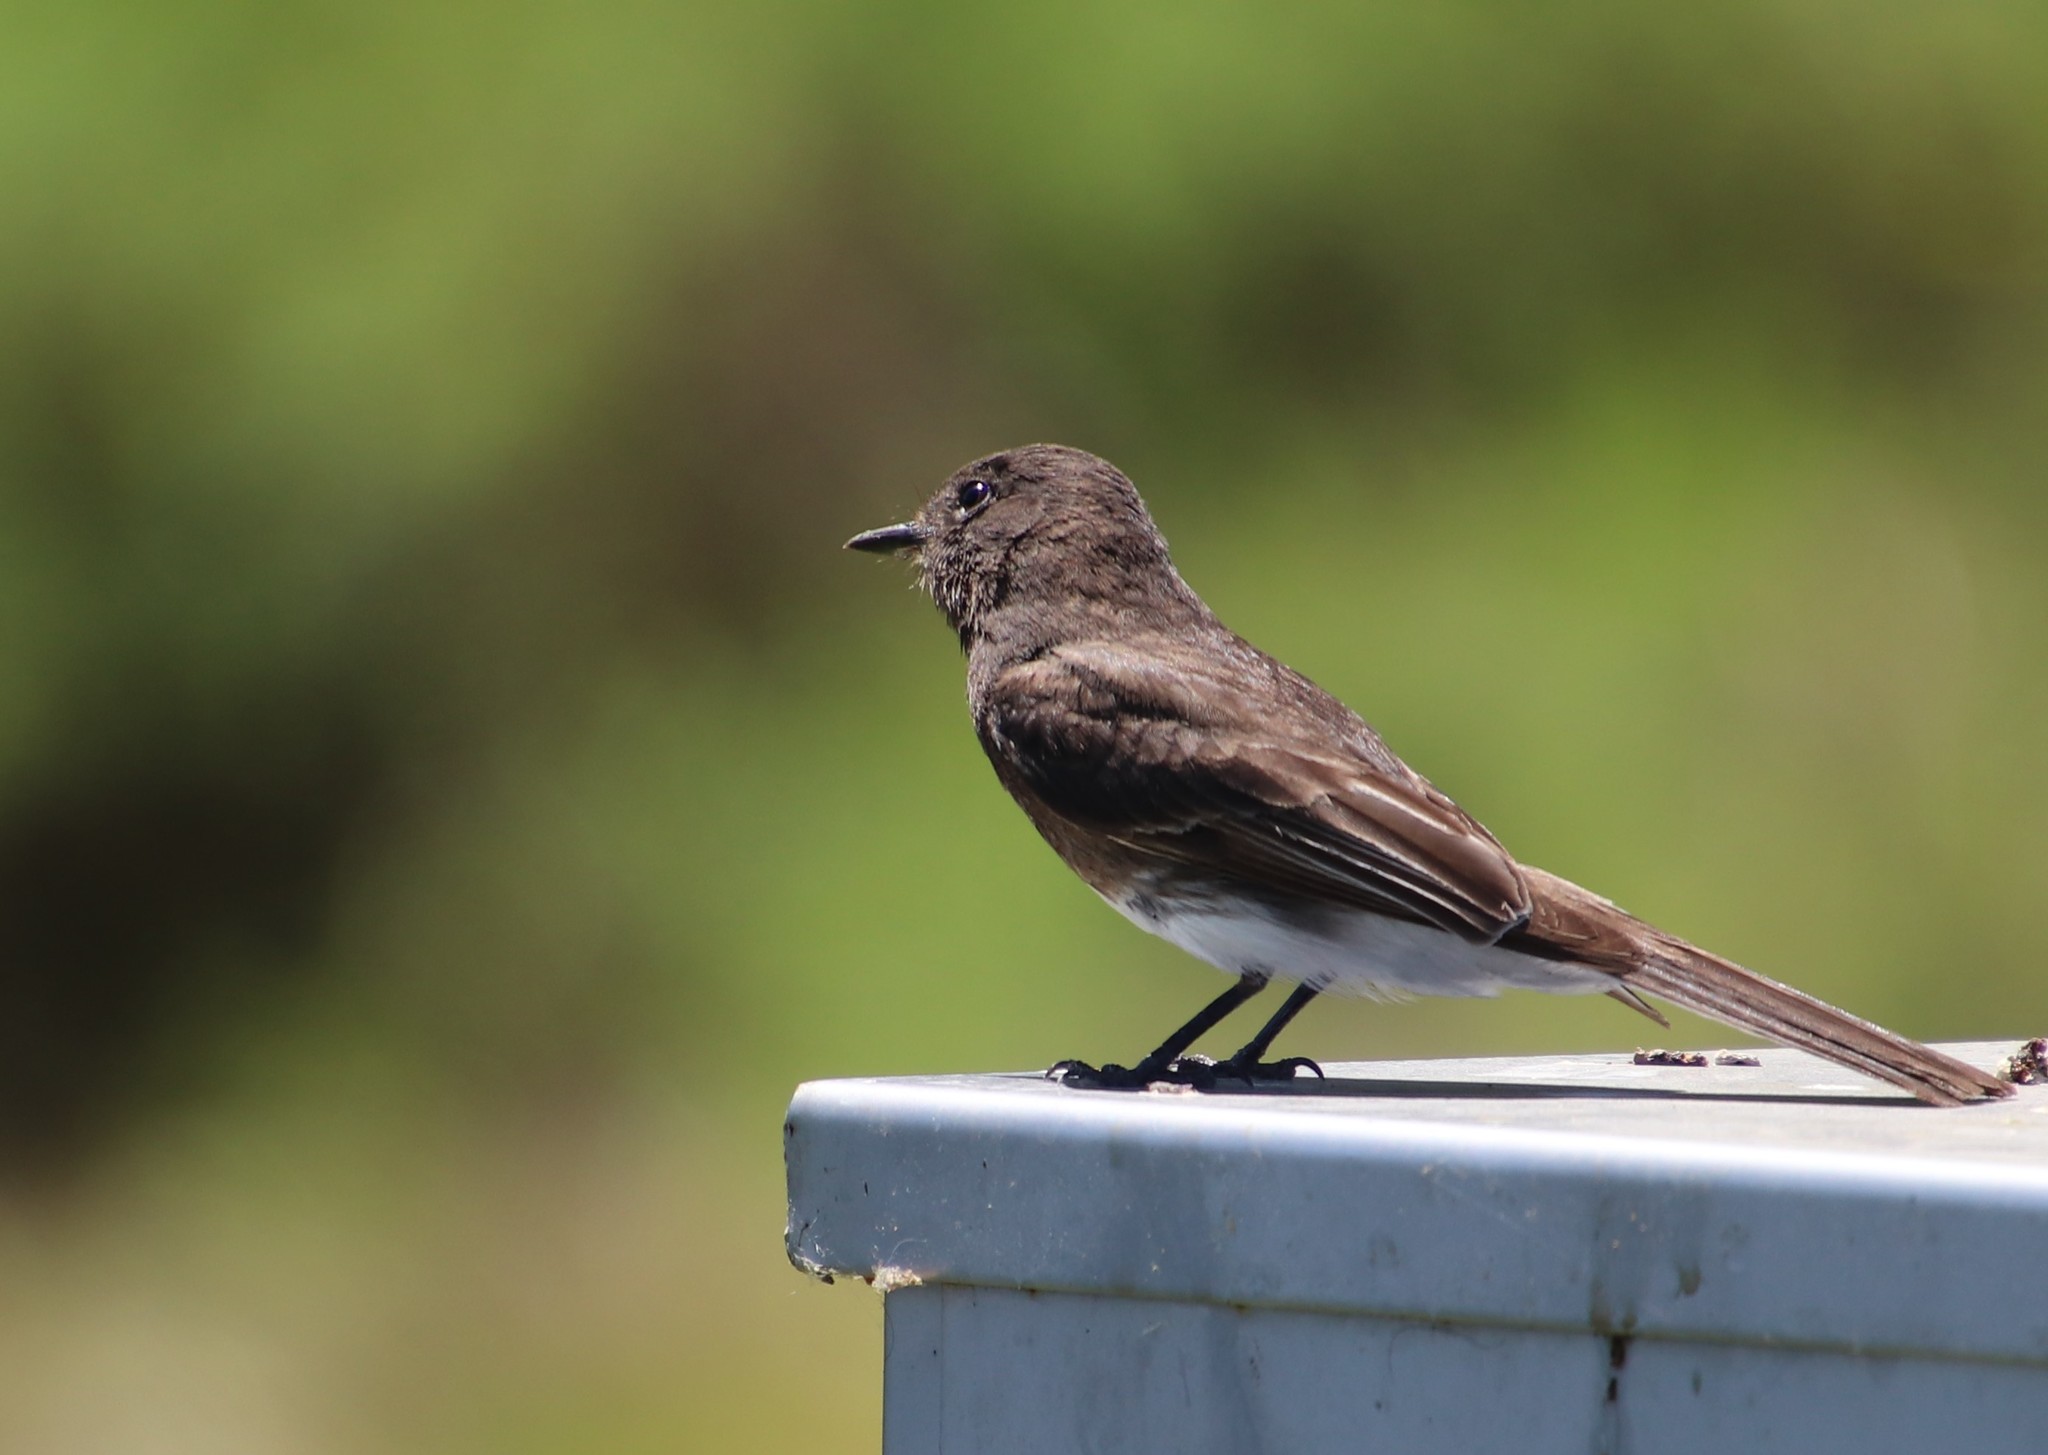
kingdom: Animalia
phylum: Chordata
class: Aves
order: Passeriformes
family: Tyrannidae
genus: Sayornis
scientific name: Sayornis nigricans
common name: Black phoebe
